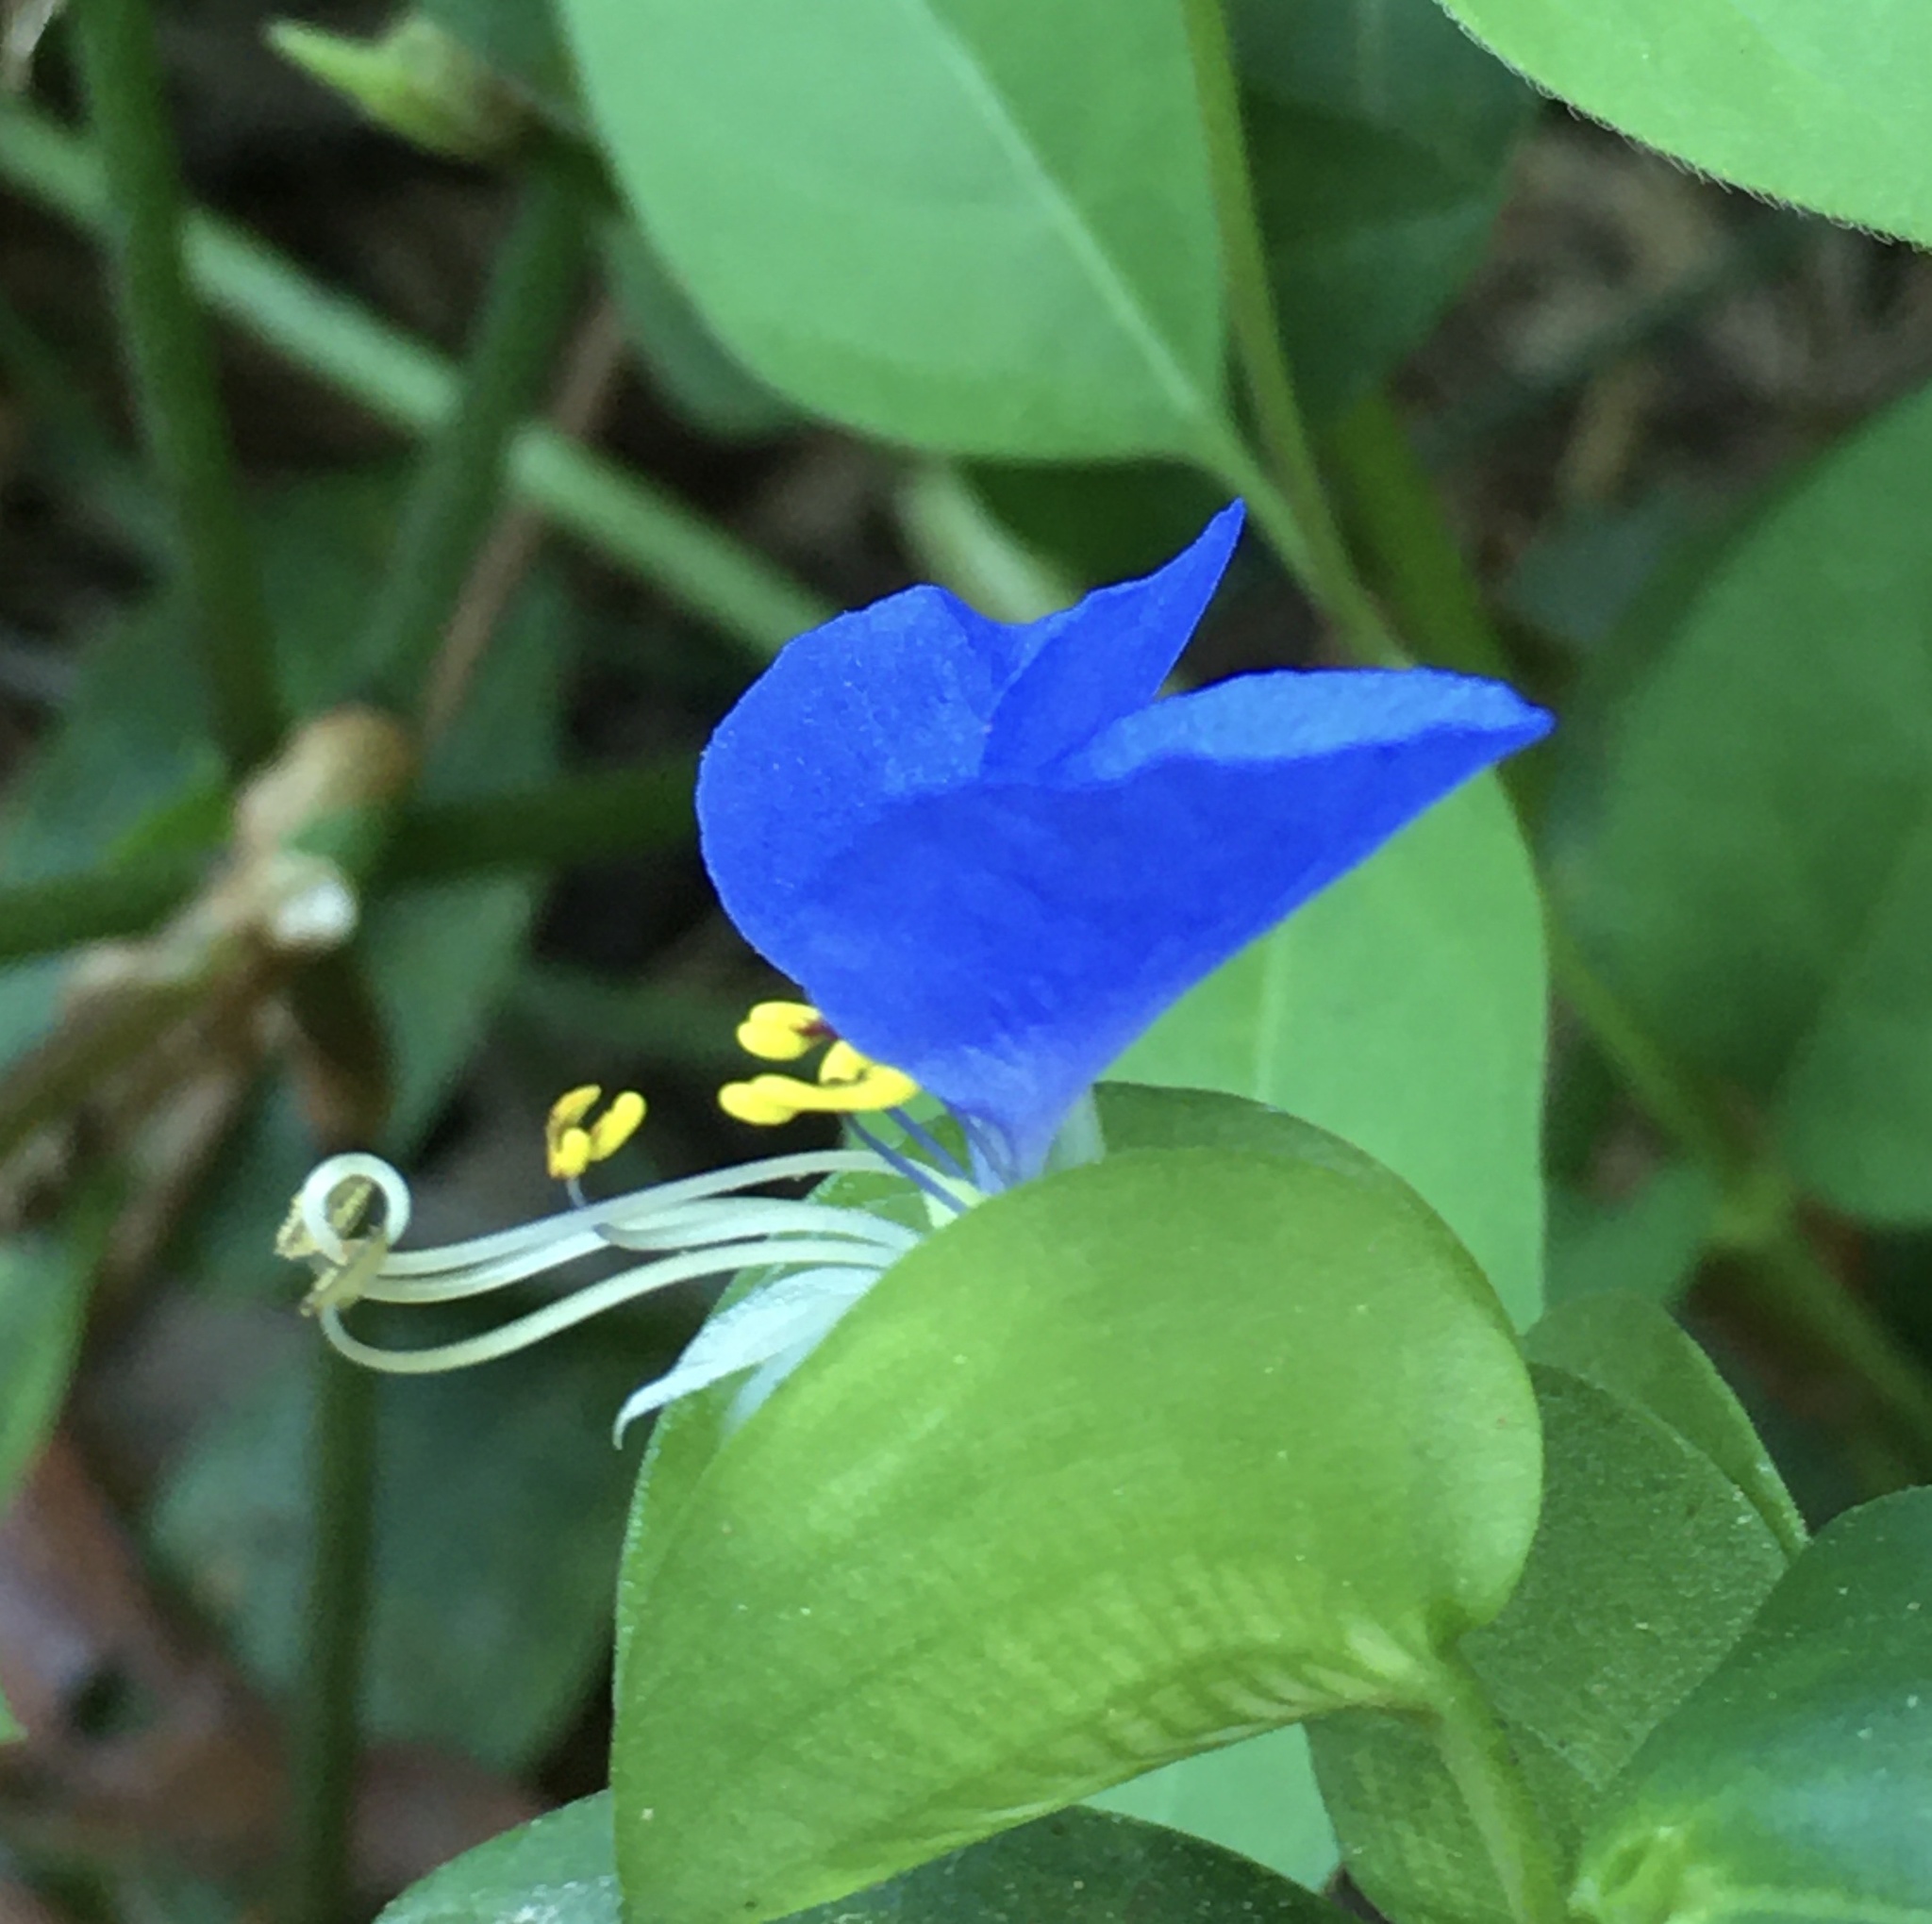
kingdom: Plantae
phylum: Tracheophyta
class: Liliopsida
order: Commelinales
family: Commelinaceae
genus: Commelina
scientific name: Commelina communis
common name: Asiatic dayflower
